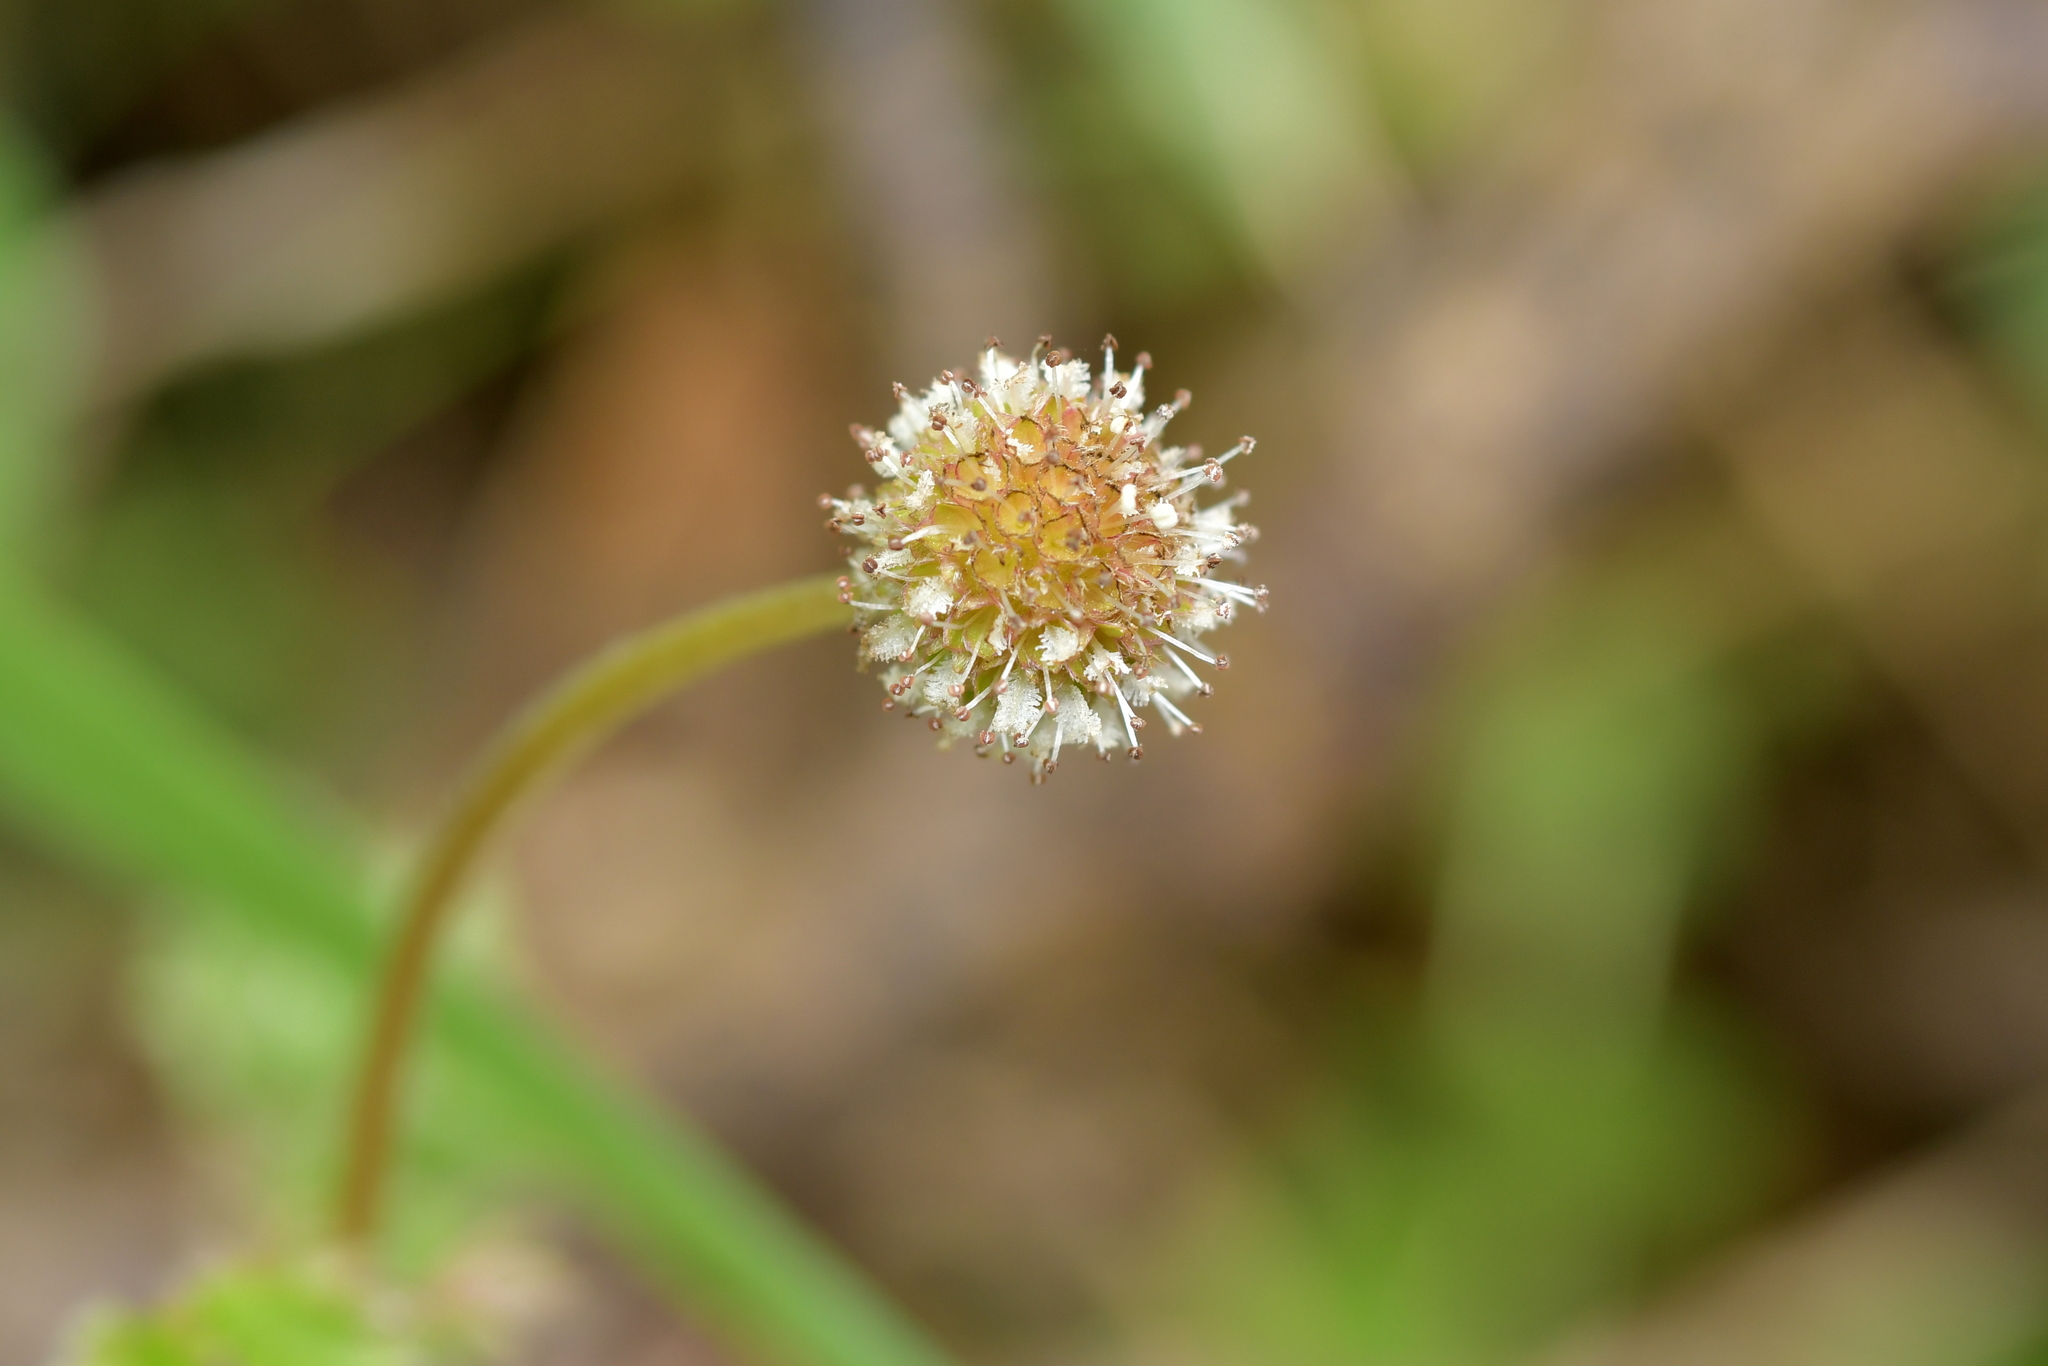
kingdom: Plantae
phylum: Tracheophyta
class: Magnoliopsida
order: Rosales
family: Rosaceae
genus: Acaena
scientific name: Acaena anserinifolia
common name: Bronze pirri-pirri-bur
